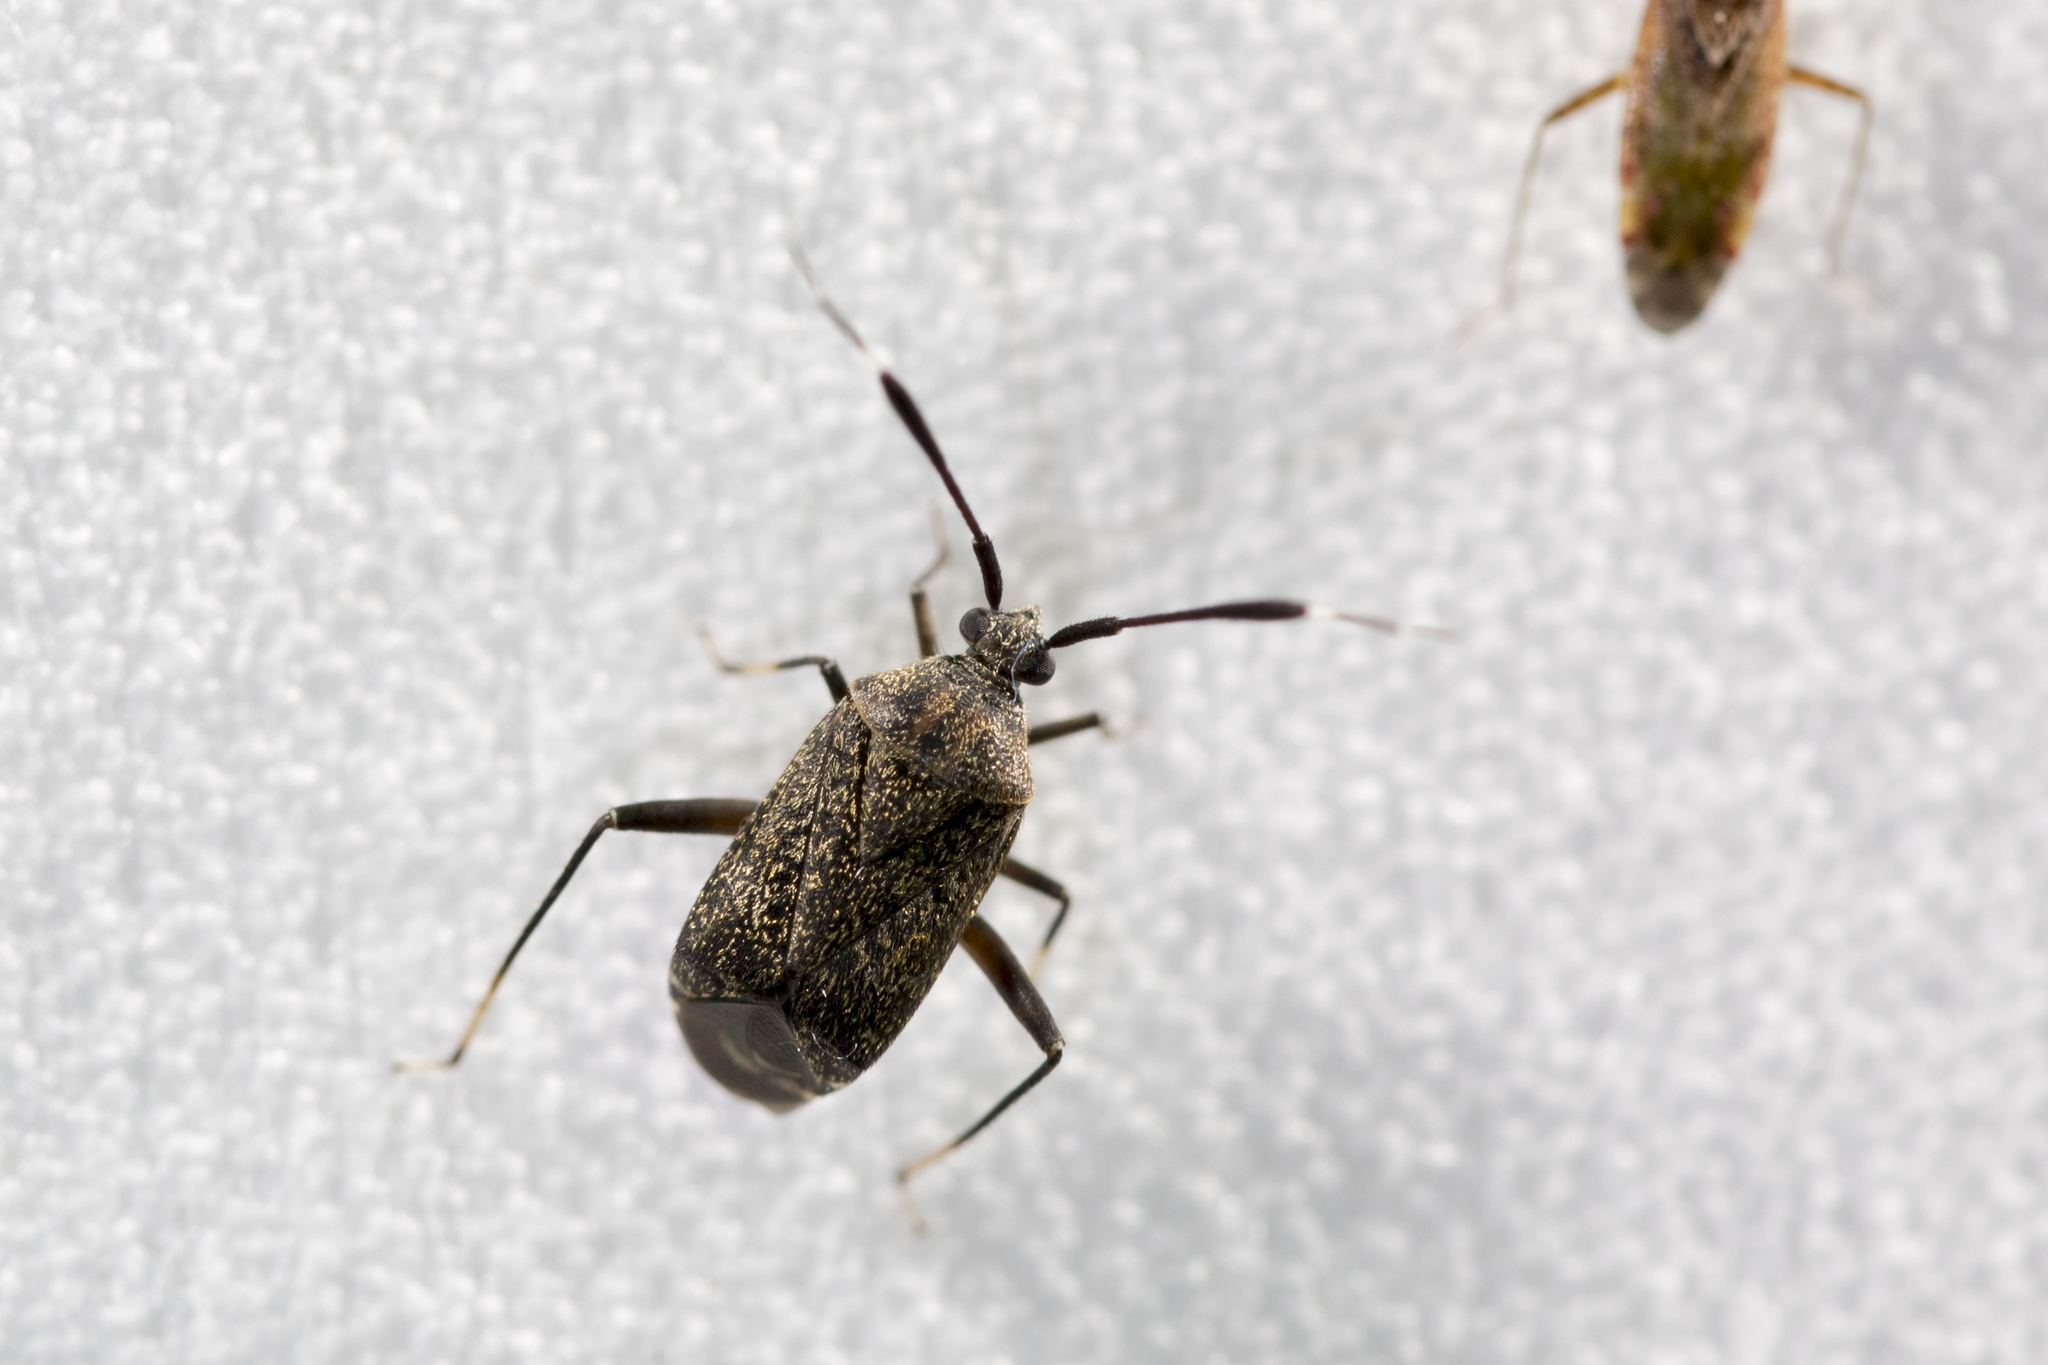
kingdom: Animalia
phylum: Arthropoda
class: Insecta
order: Hemiptera
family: Miridae
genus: Eurystylus
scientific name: Eurystylus Eurystylopsis crassicornis
